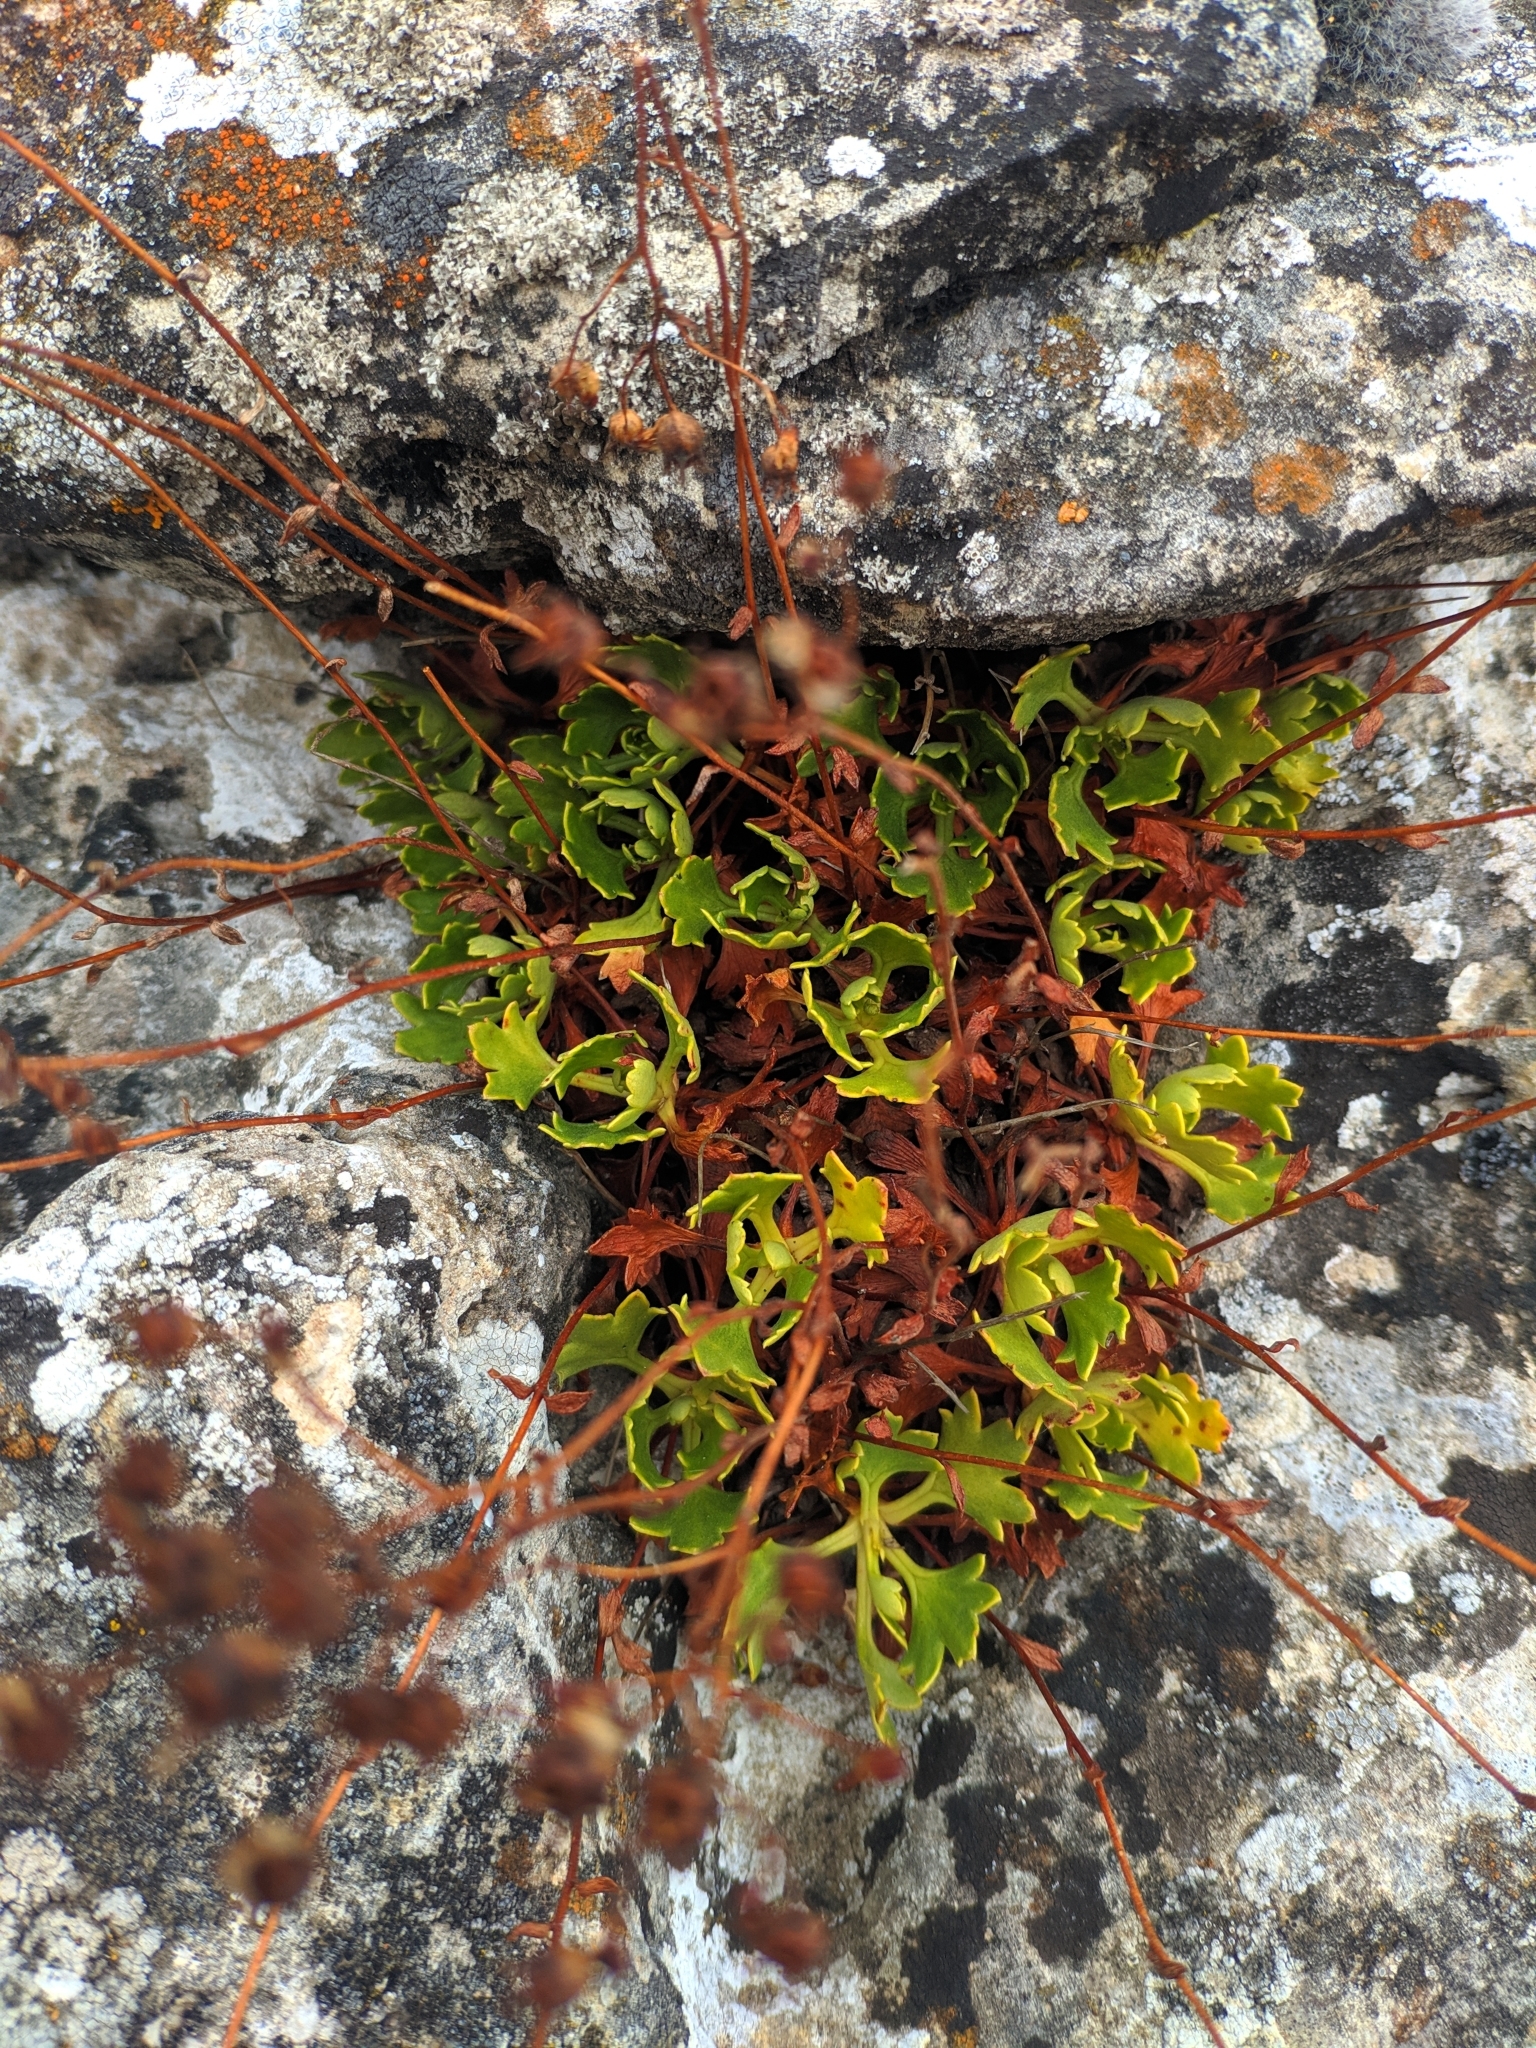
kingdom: Plantae
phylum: Tracheophyta
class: Magnoliopsida
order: Saxifragales
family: Saxifragaceae
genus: Saxifraga
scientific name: Saxifraga cuneata
